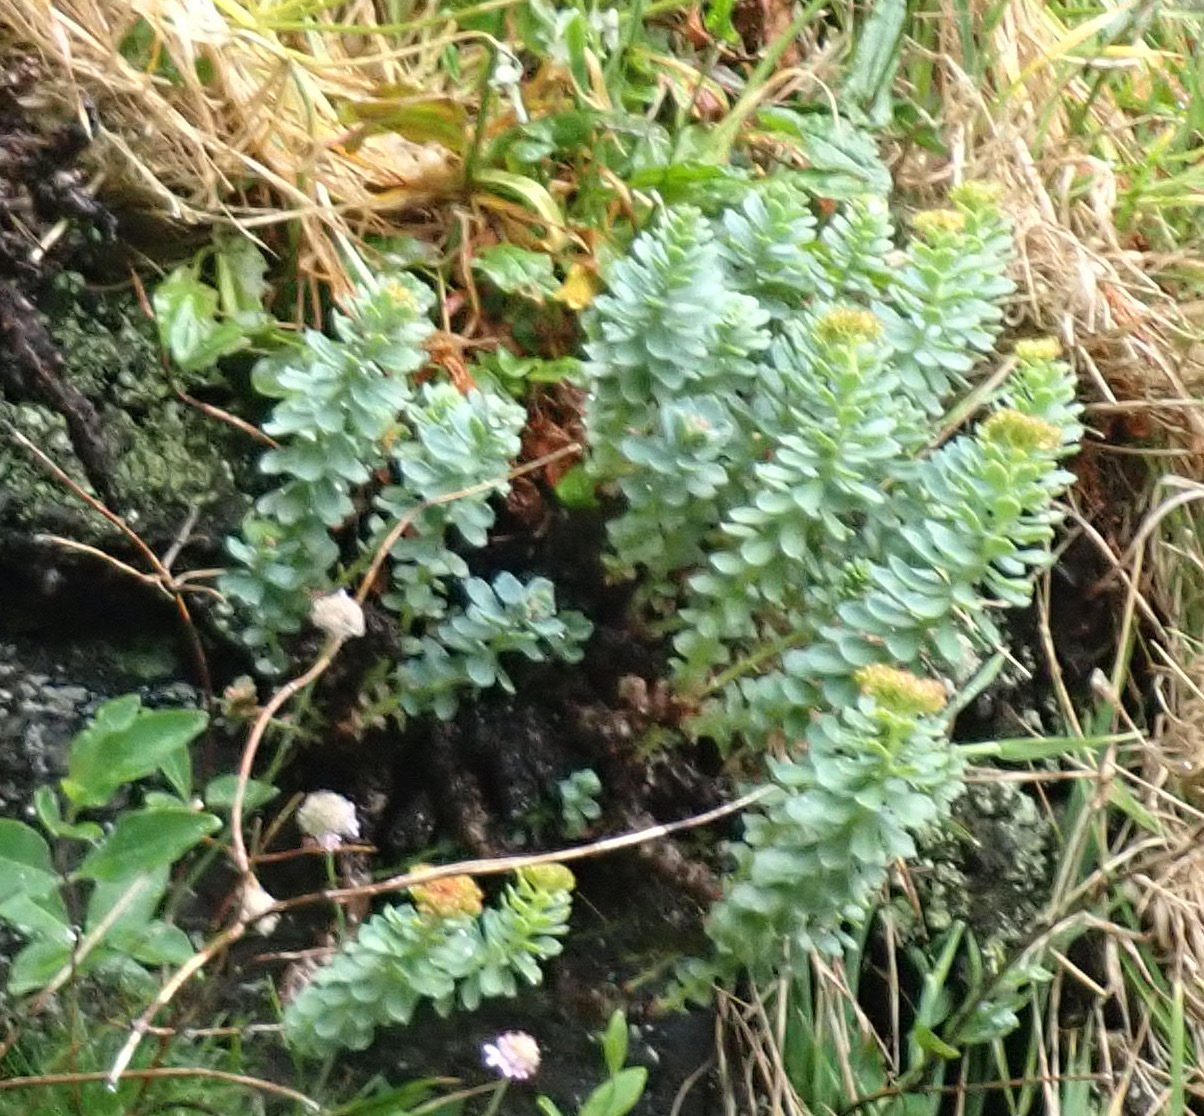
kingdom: Plantae
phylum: Tracheophyta
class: Magnoliopsida
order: Saxifragales
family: Crassulaceae
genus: Rhodiola
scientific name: Rhodiola rosea
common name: Roseroot
